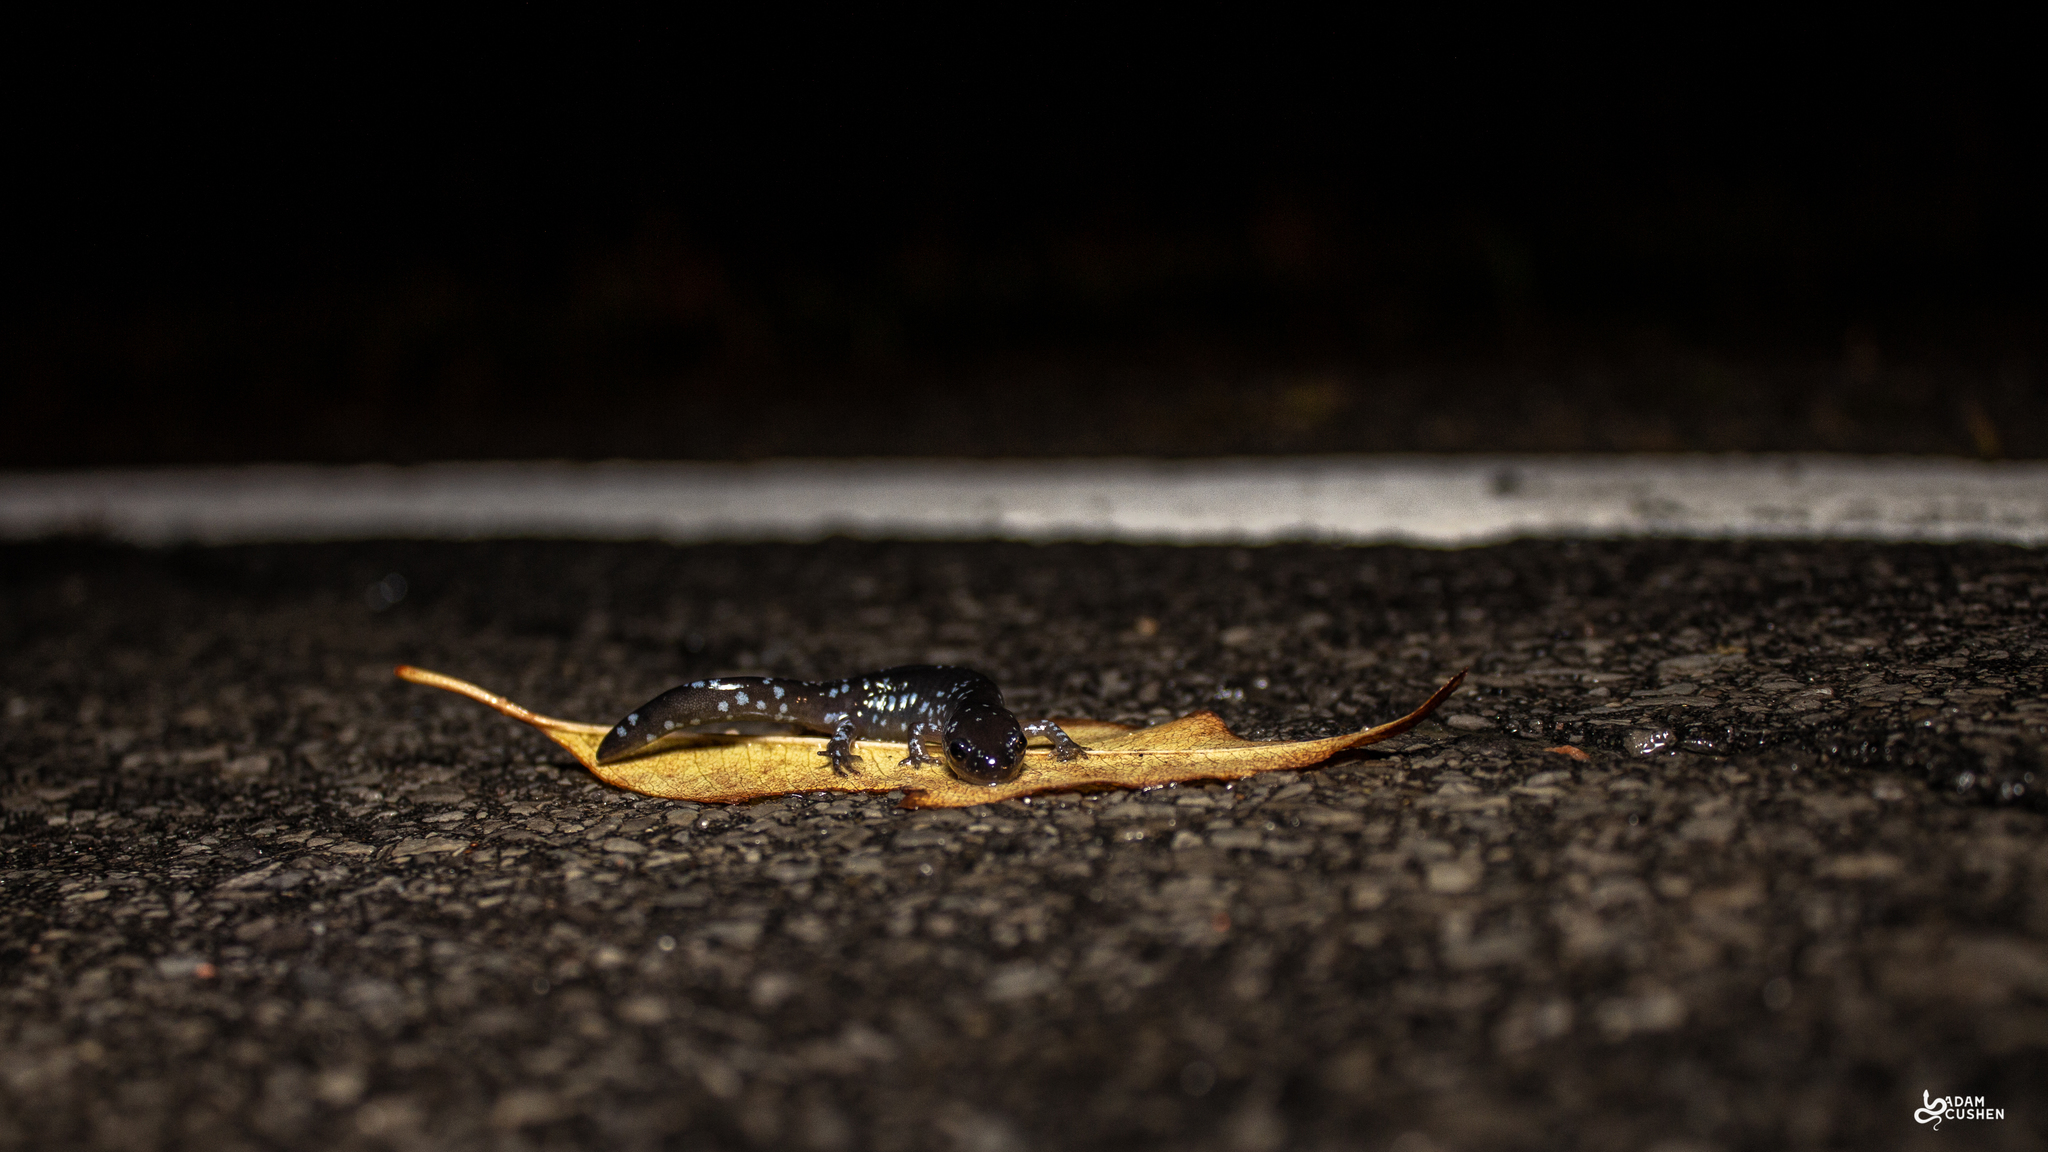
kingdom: Animalia
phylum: Chordata
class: Amphibia
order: Caudata
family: Ambystomatidae
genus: Ambystoma
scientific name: Ambystoma laterale
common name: Blue-spotted salamander
